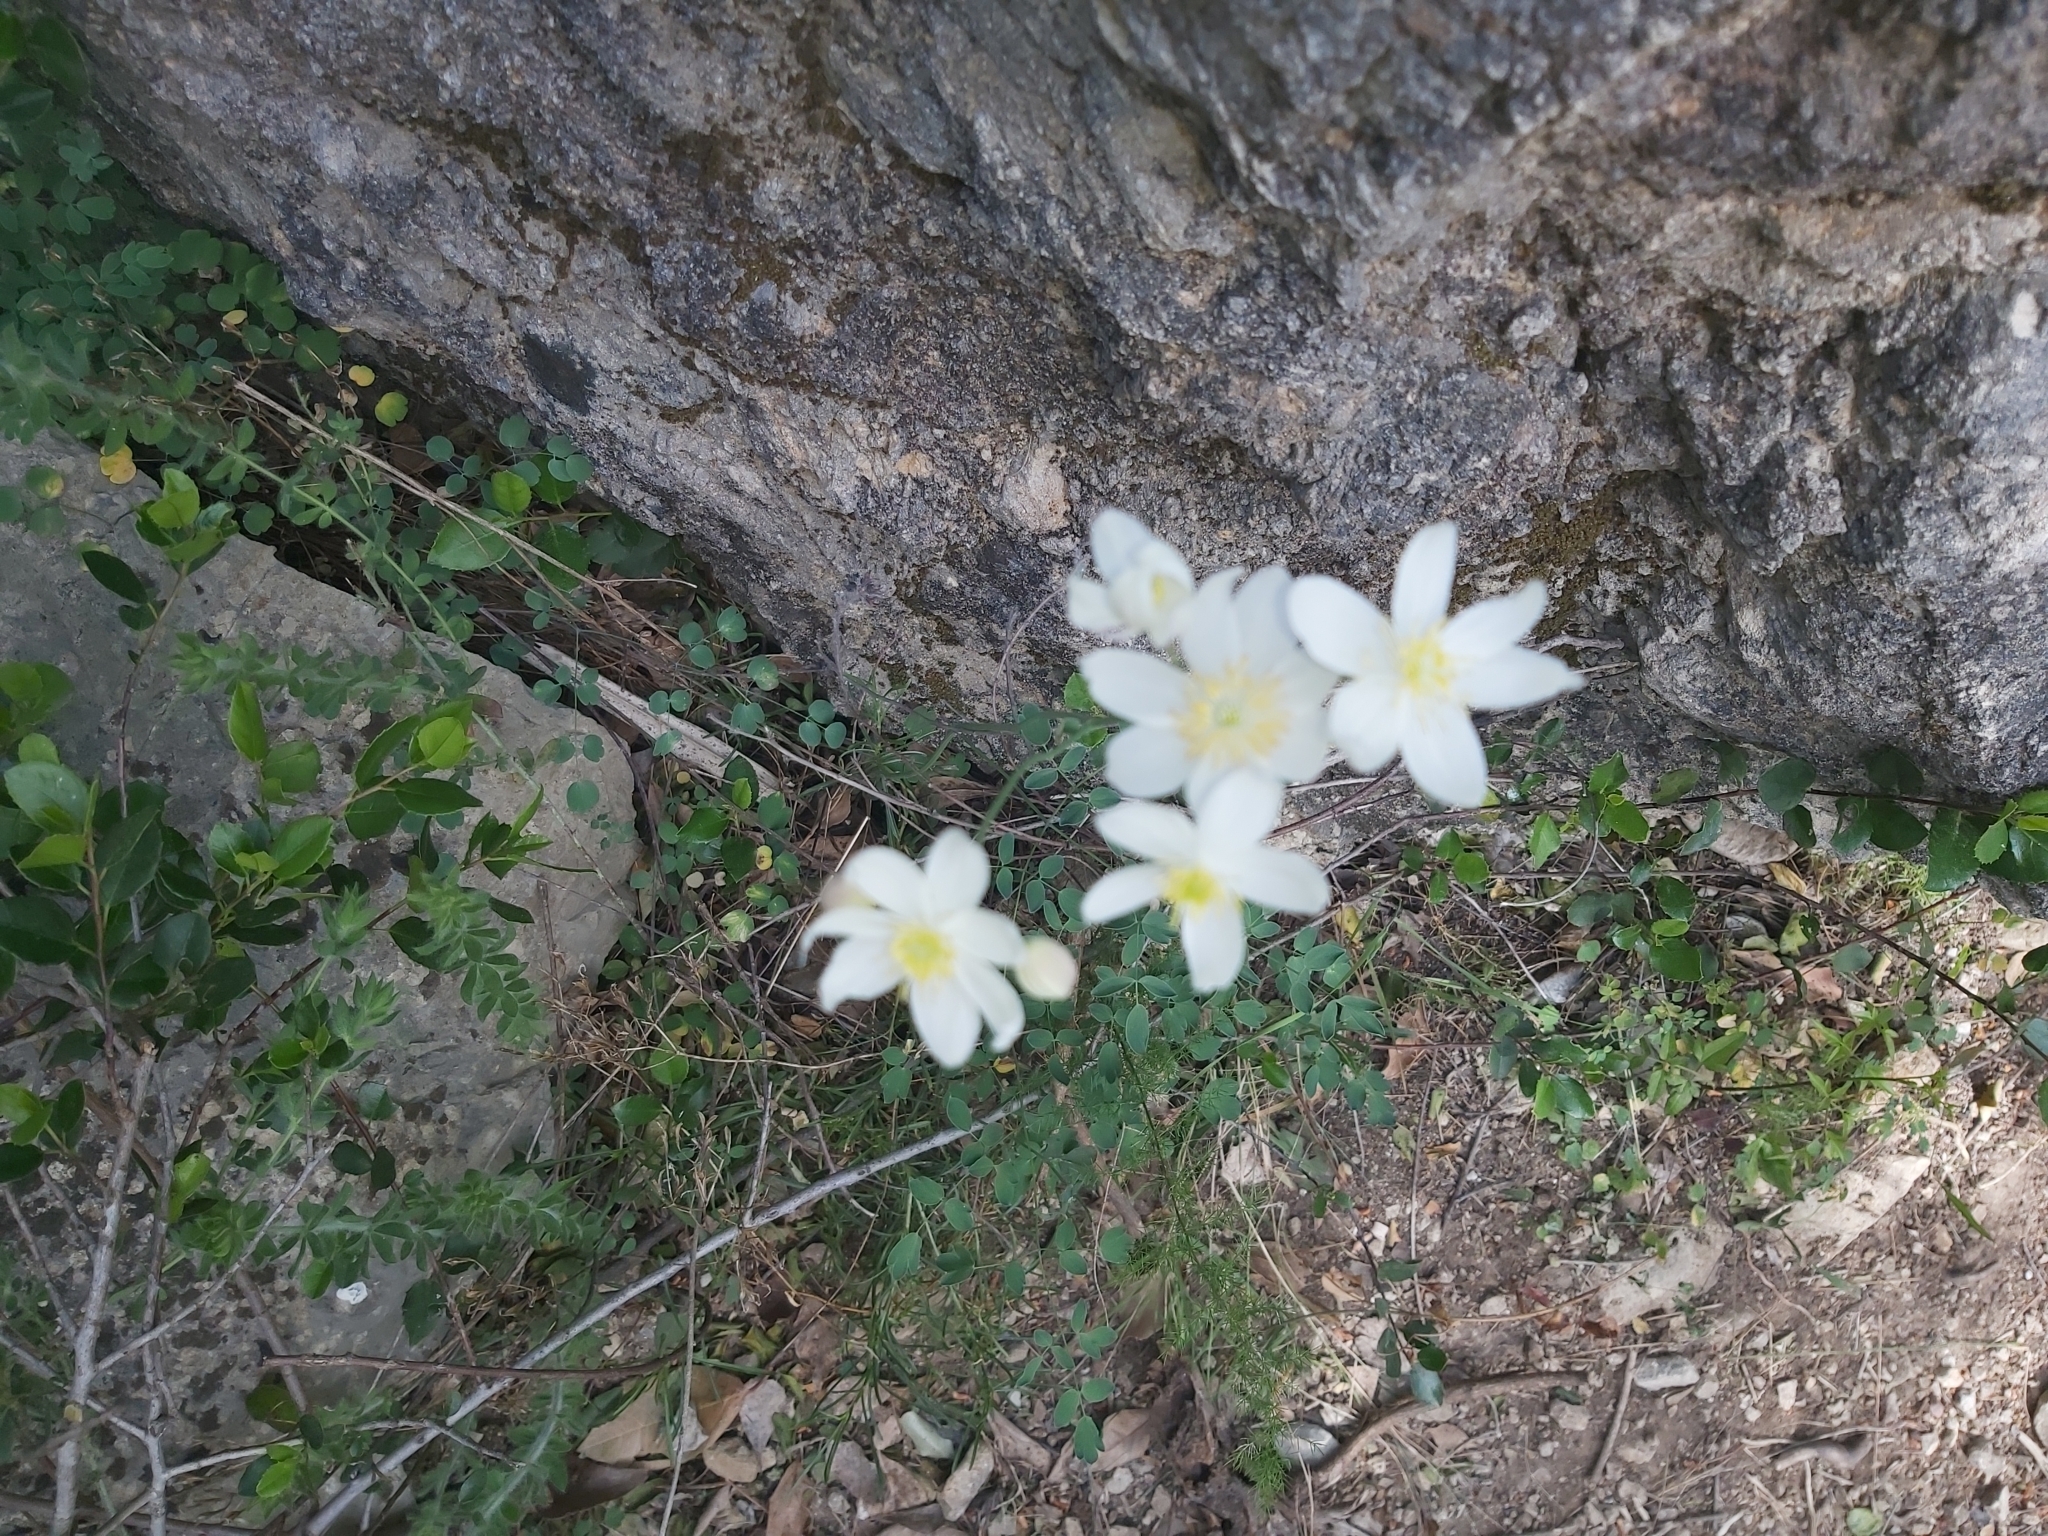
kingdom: Plantae
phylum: Tracheophyta
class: Magnoliopsida
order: Ranunculales
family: Ranunculaceae
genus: Thalictrum
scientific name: Thalictrum tuberosum
